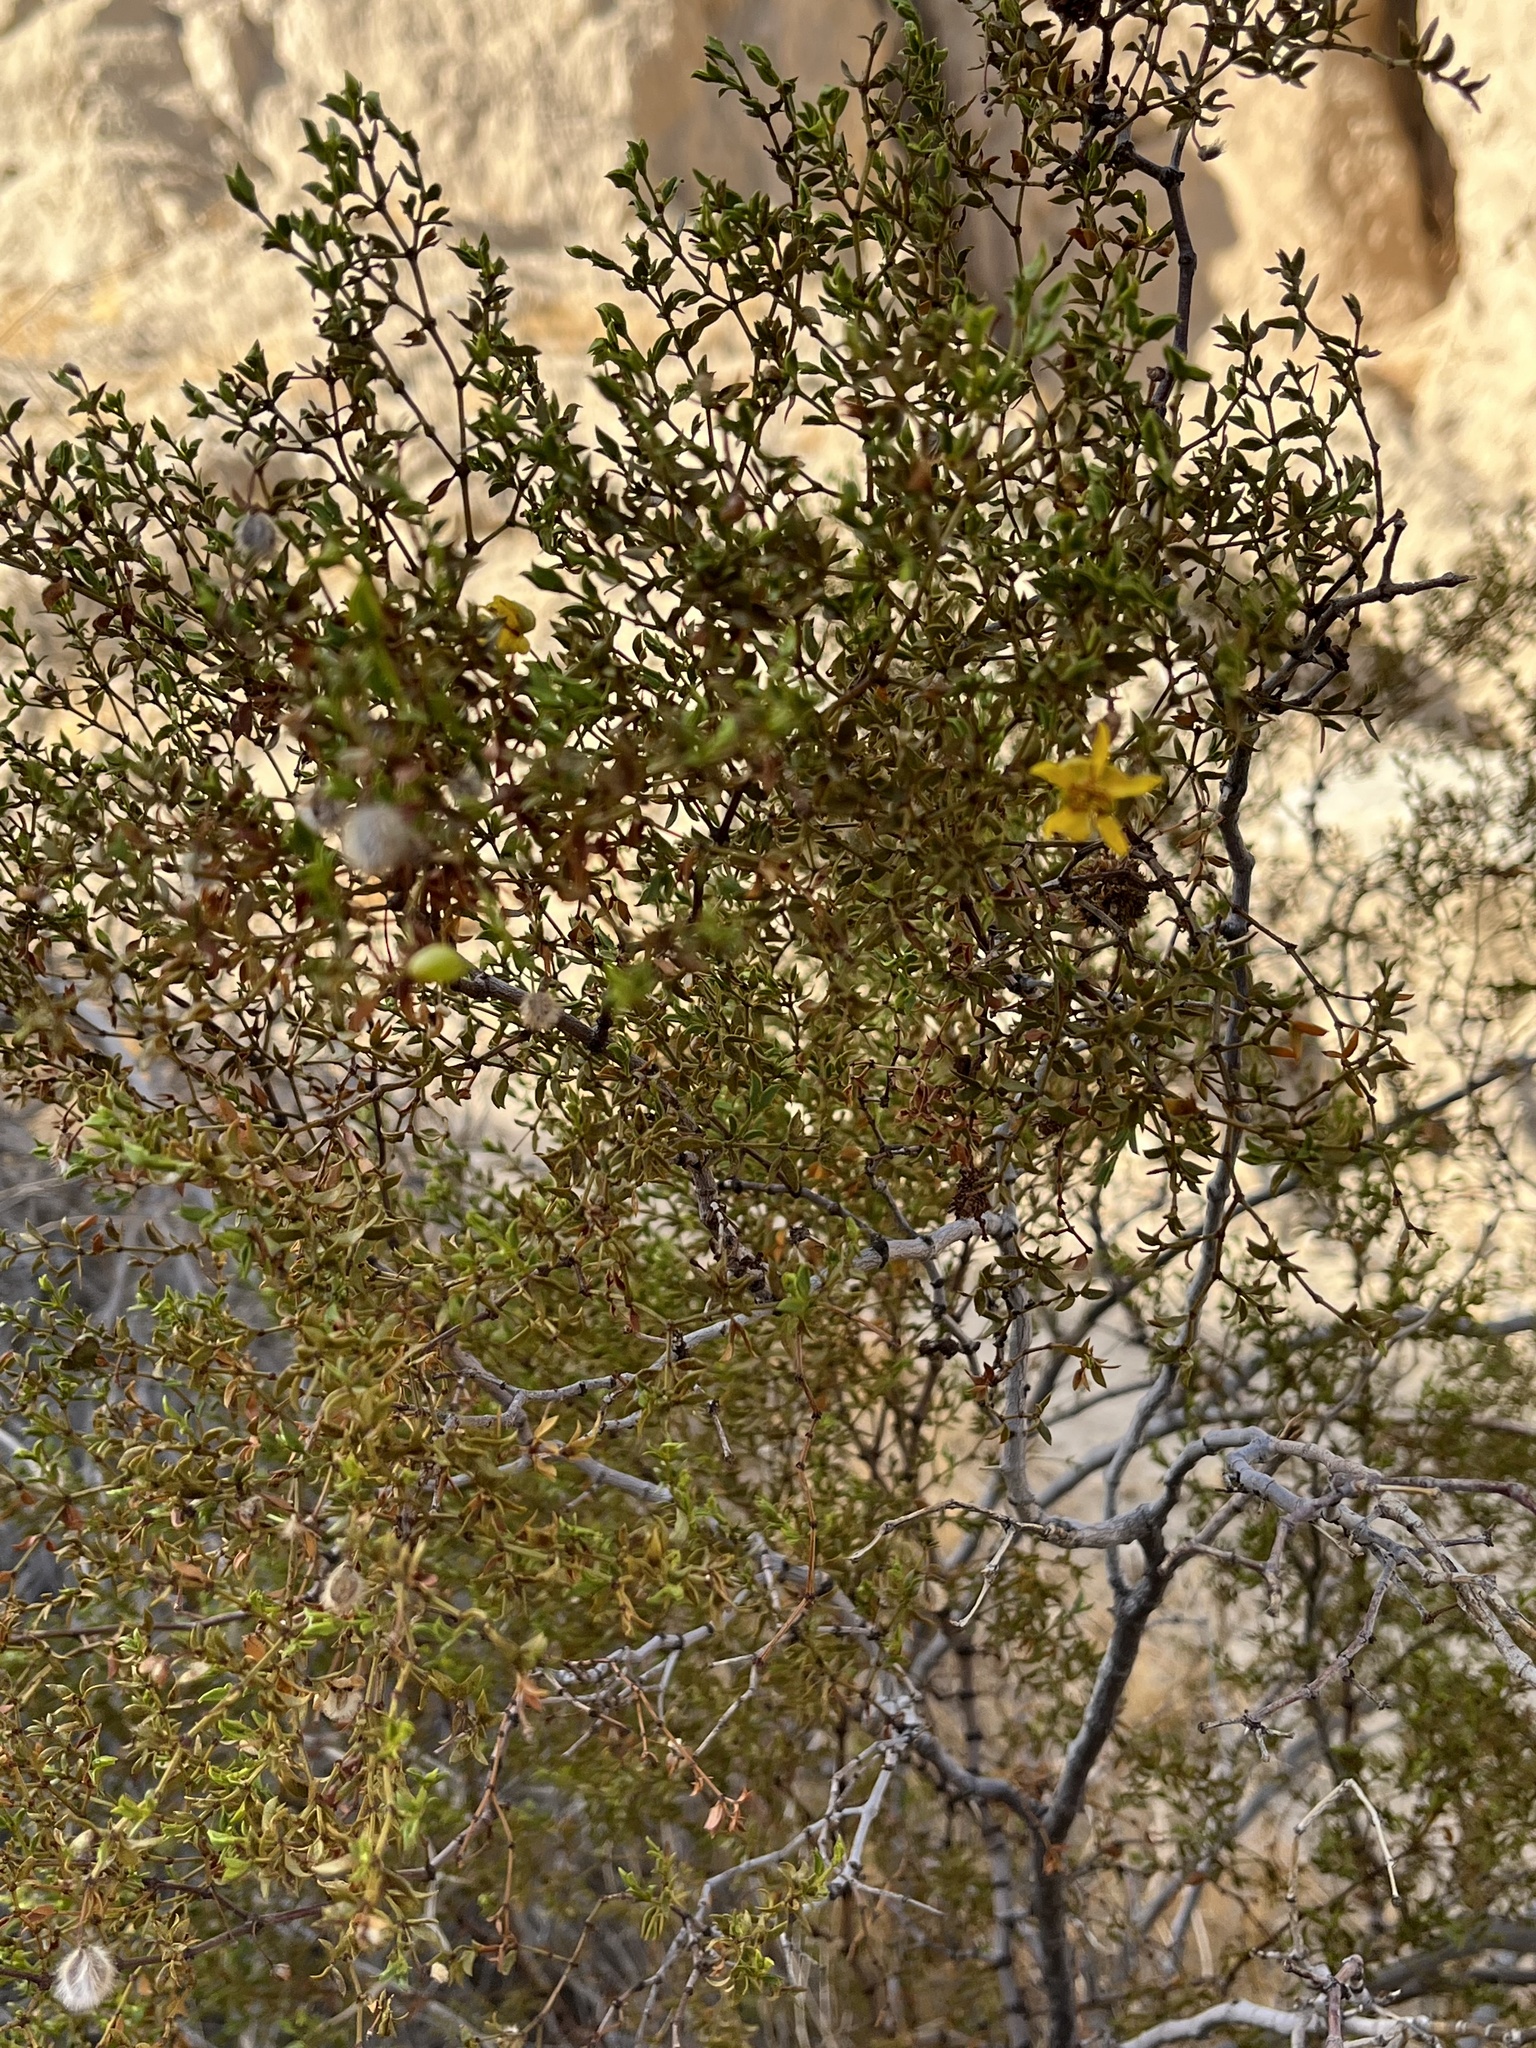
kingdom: Plantae
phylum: Tracheophyta
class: Magnoliopsida
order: Zygophyllales
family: Zygophyllaceae
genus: Larrea
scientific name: Larrea tridentata
